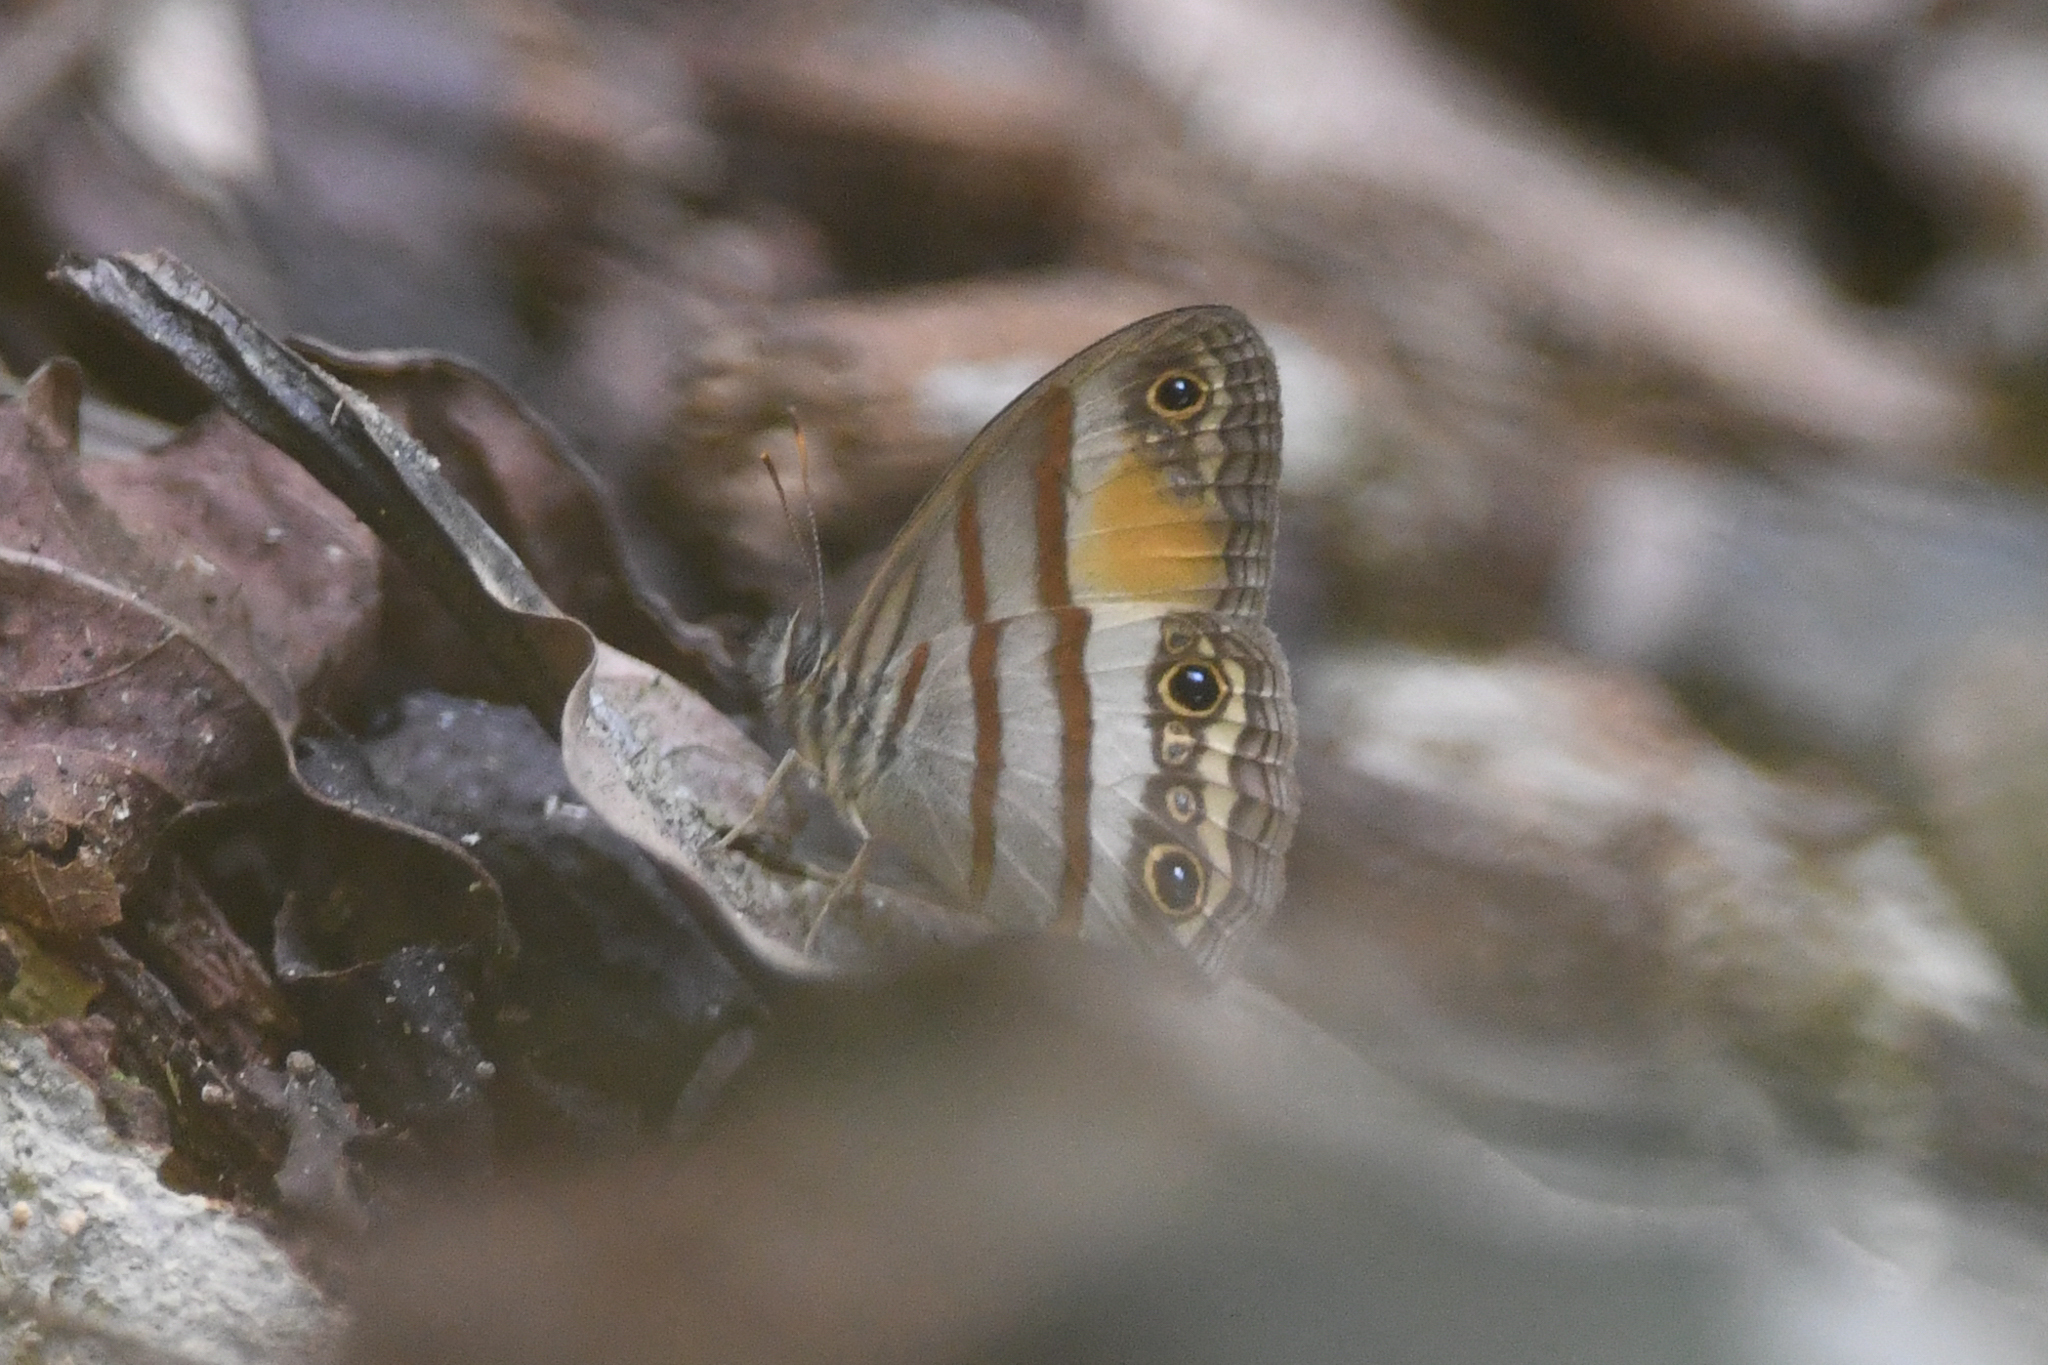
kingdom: Animalia
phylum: Arthropoda
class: Insecta
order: Lepidoptera
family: Nymphalidae
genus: Paryphthimoides
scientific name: Paryphthimoides
